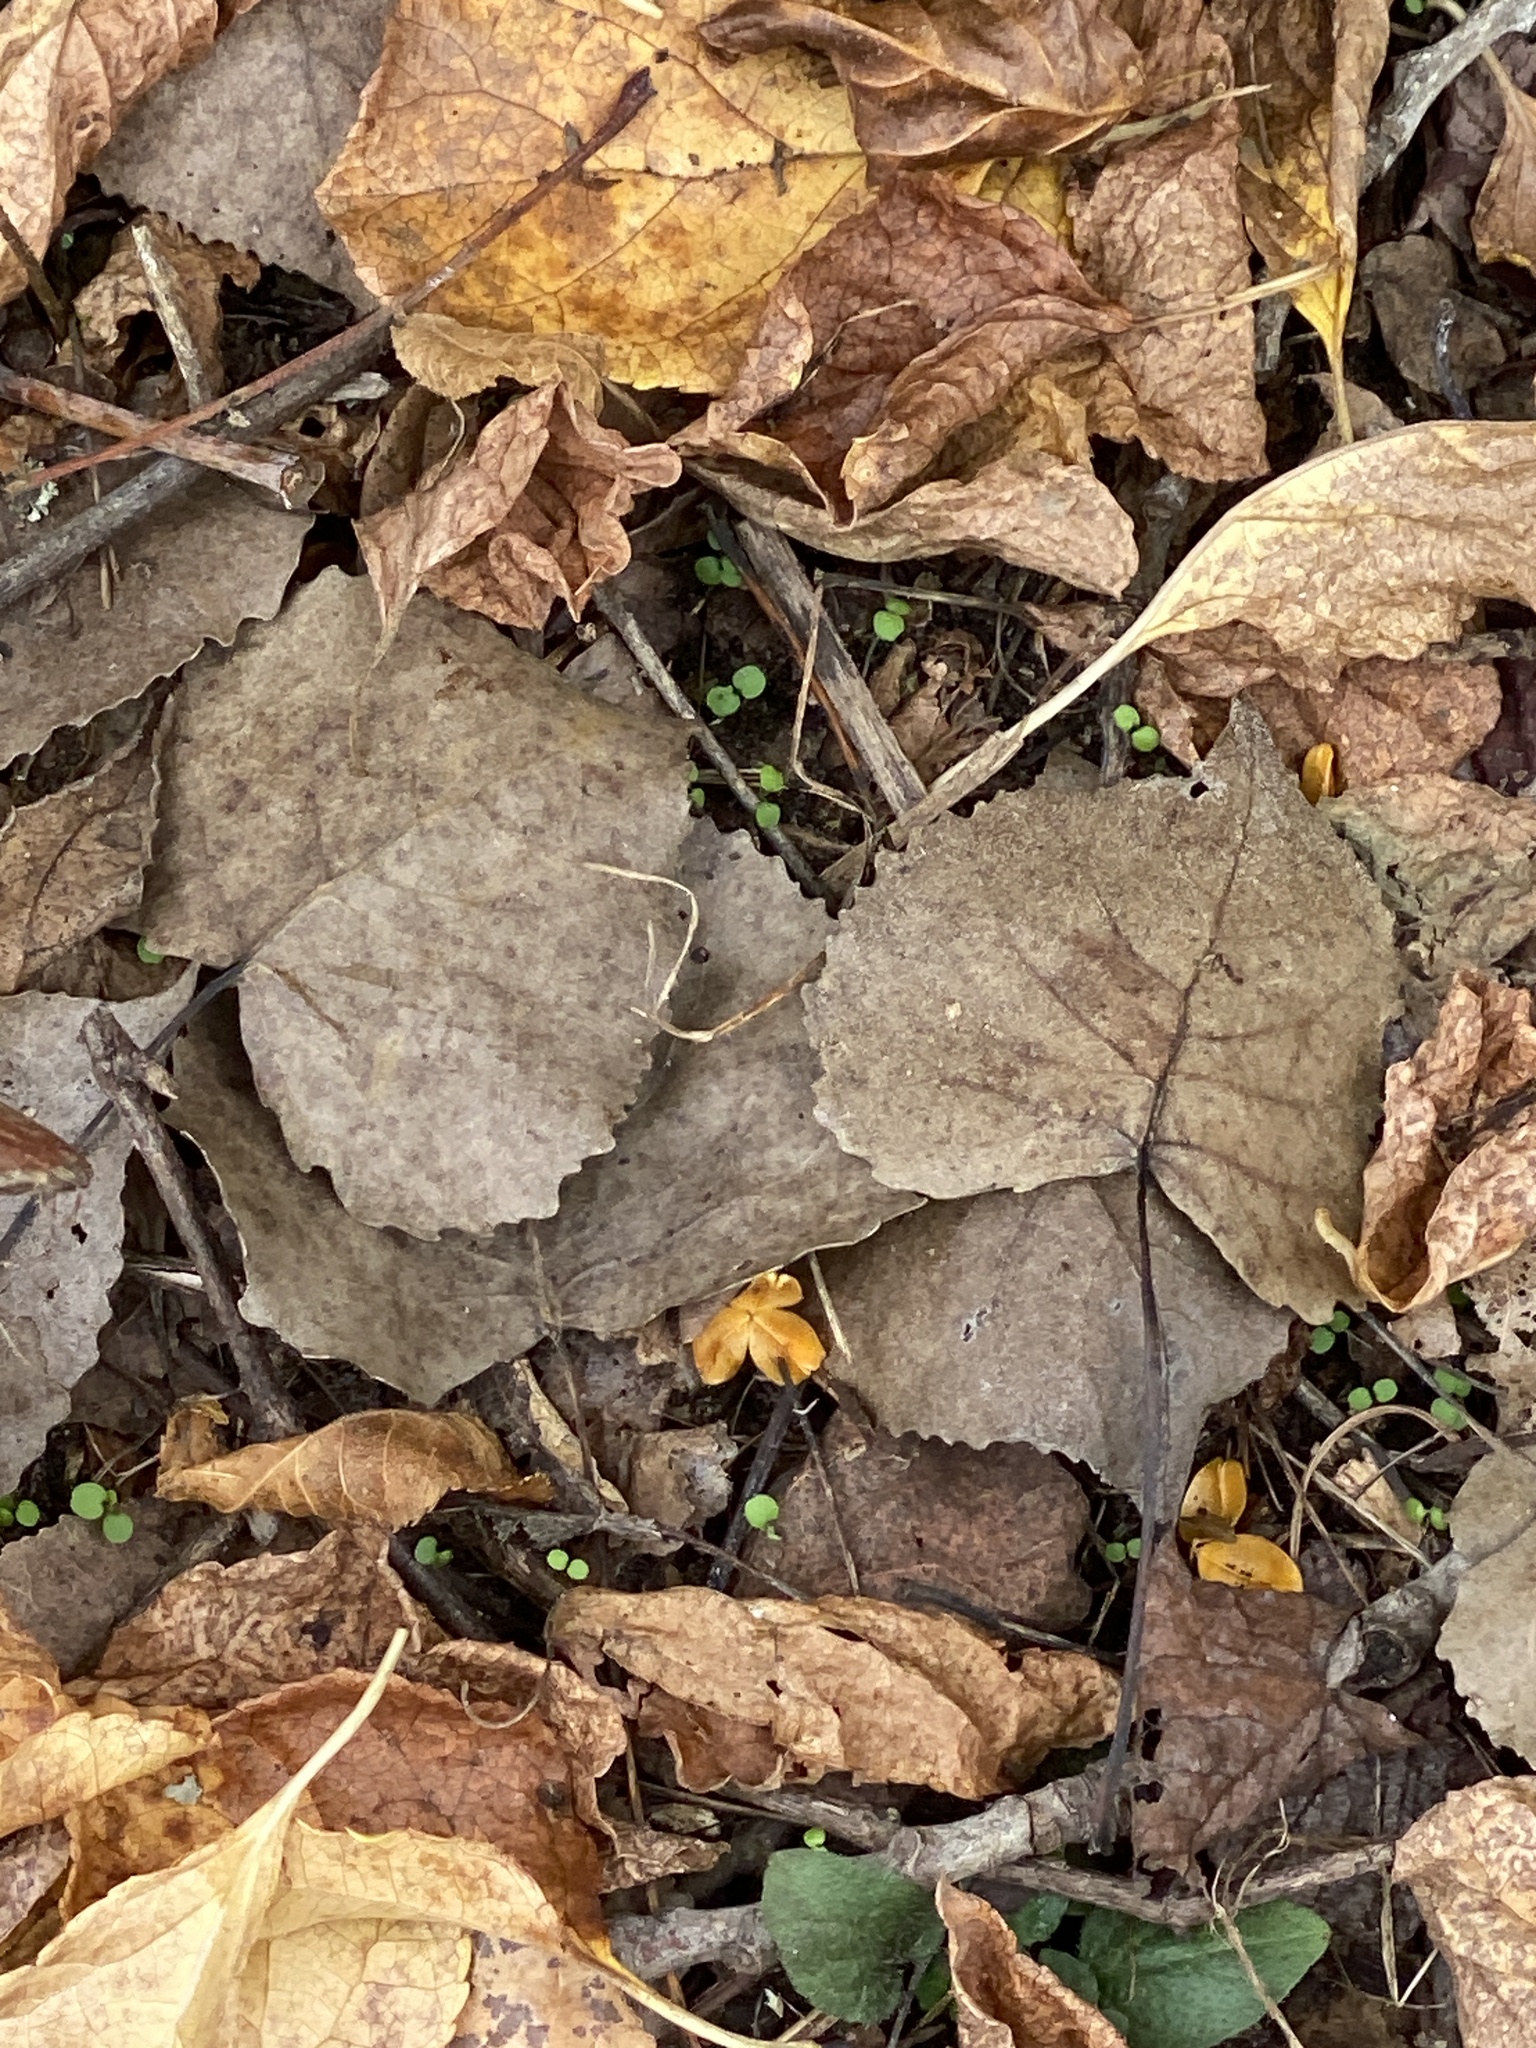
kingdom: Plantae
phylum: Tracheophyta
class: Magnoliopsida
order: Malpighiales
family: Salicaceae
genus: Populus
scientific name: Populus deltoides
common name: Eastern cottonwood
